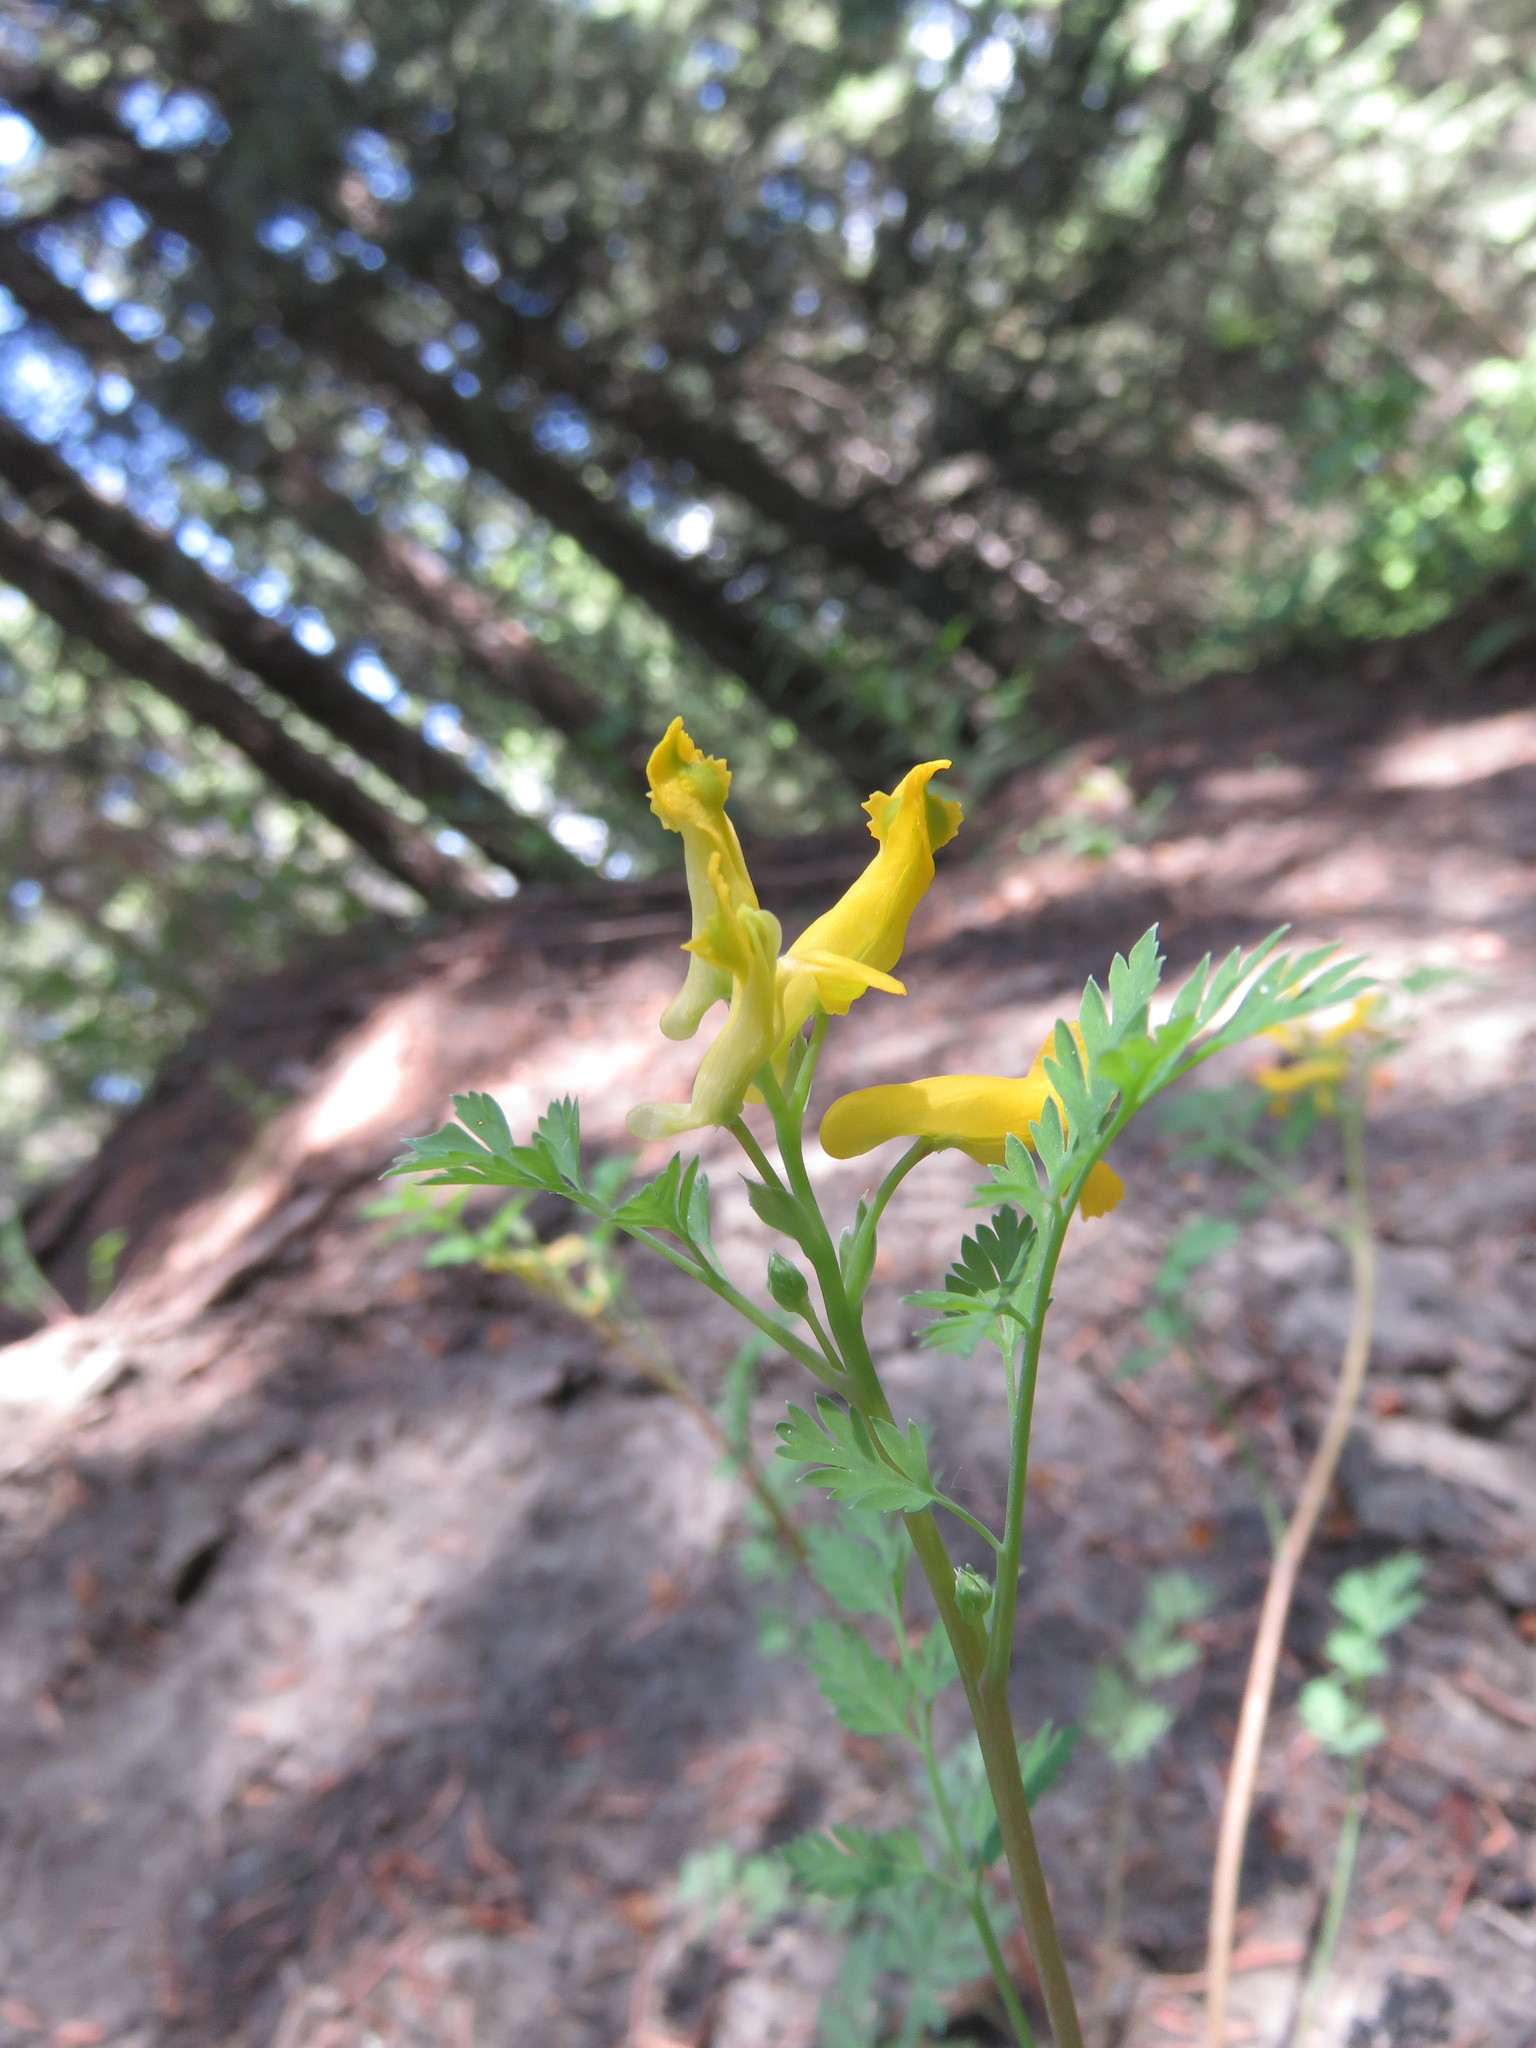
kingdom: Plantae
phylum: Tracheophyta
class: Magnoliopsida
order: Ranunculales
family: Papaveraceae
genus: Corydalis
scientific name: Corydalis aurea
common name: Golden corydalis
